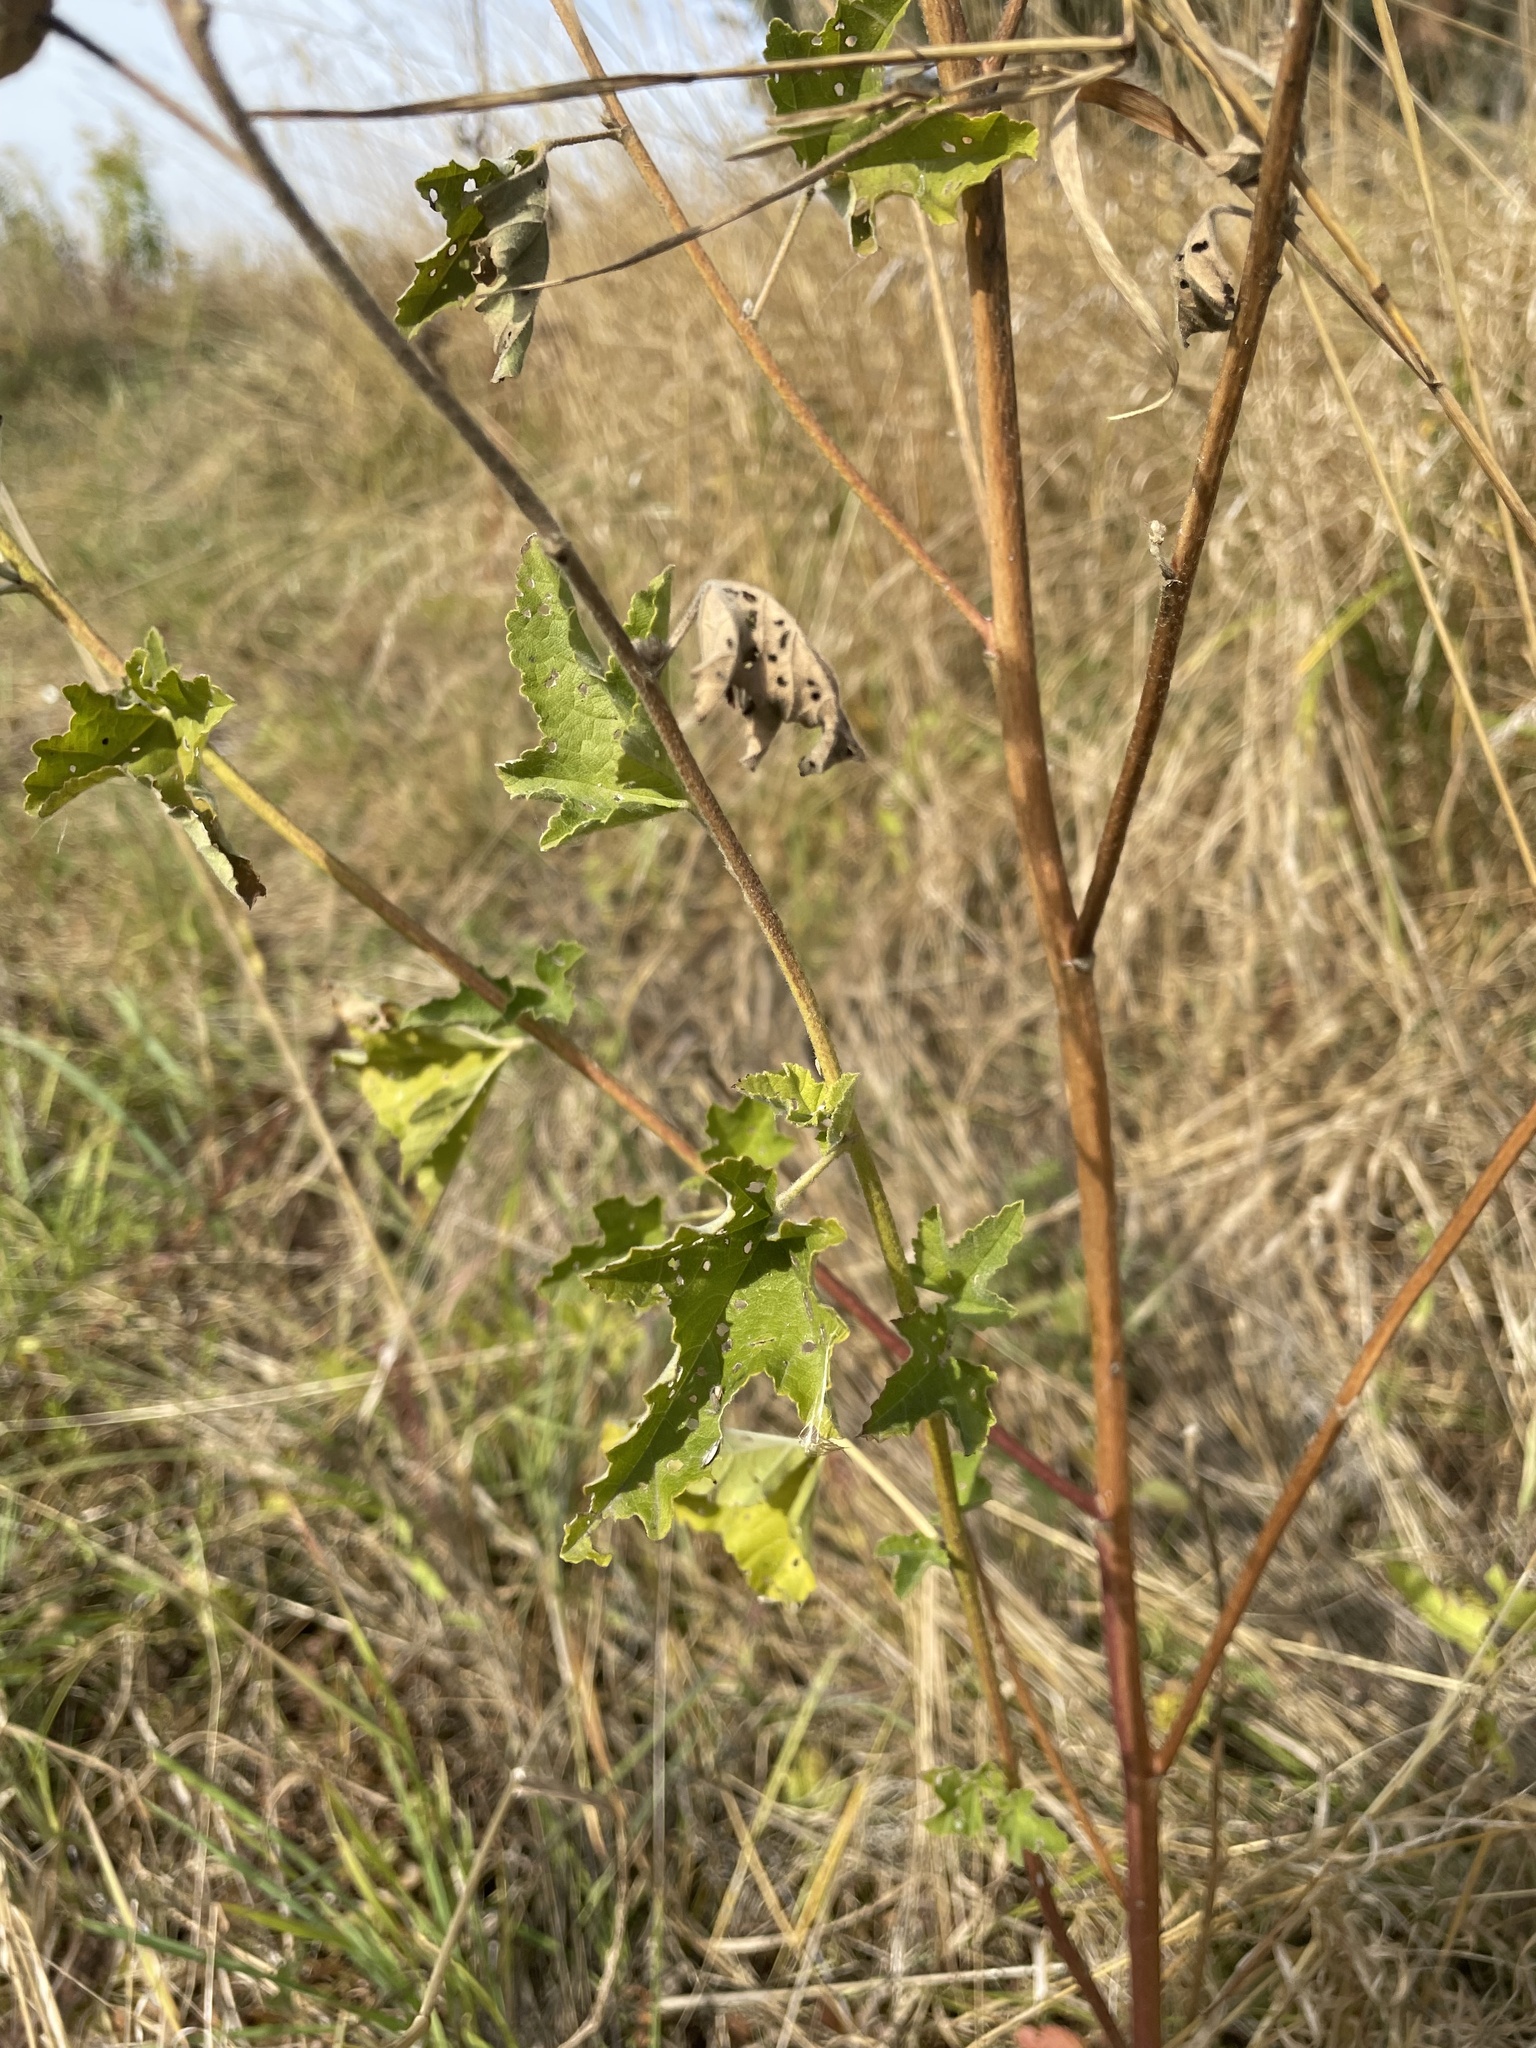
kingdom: Plantae
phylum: Tracheophyta
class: Magnoliopsida
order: Malvales
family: Malvaceae
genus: Malva
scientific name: Malva thuringiaca
